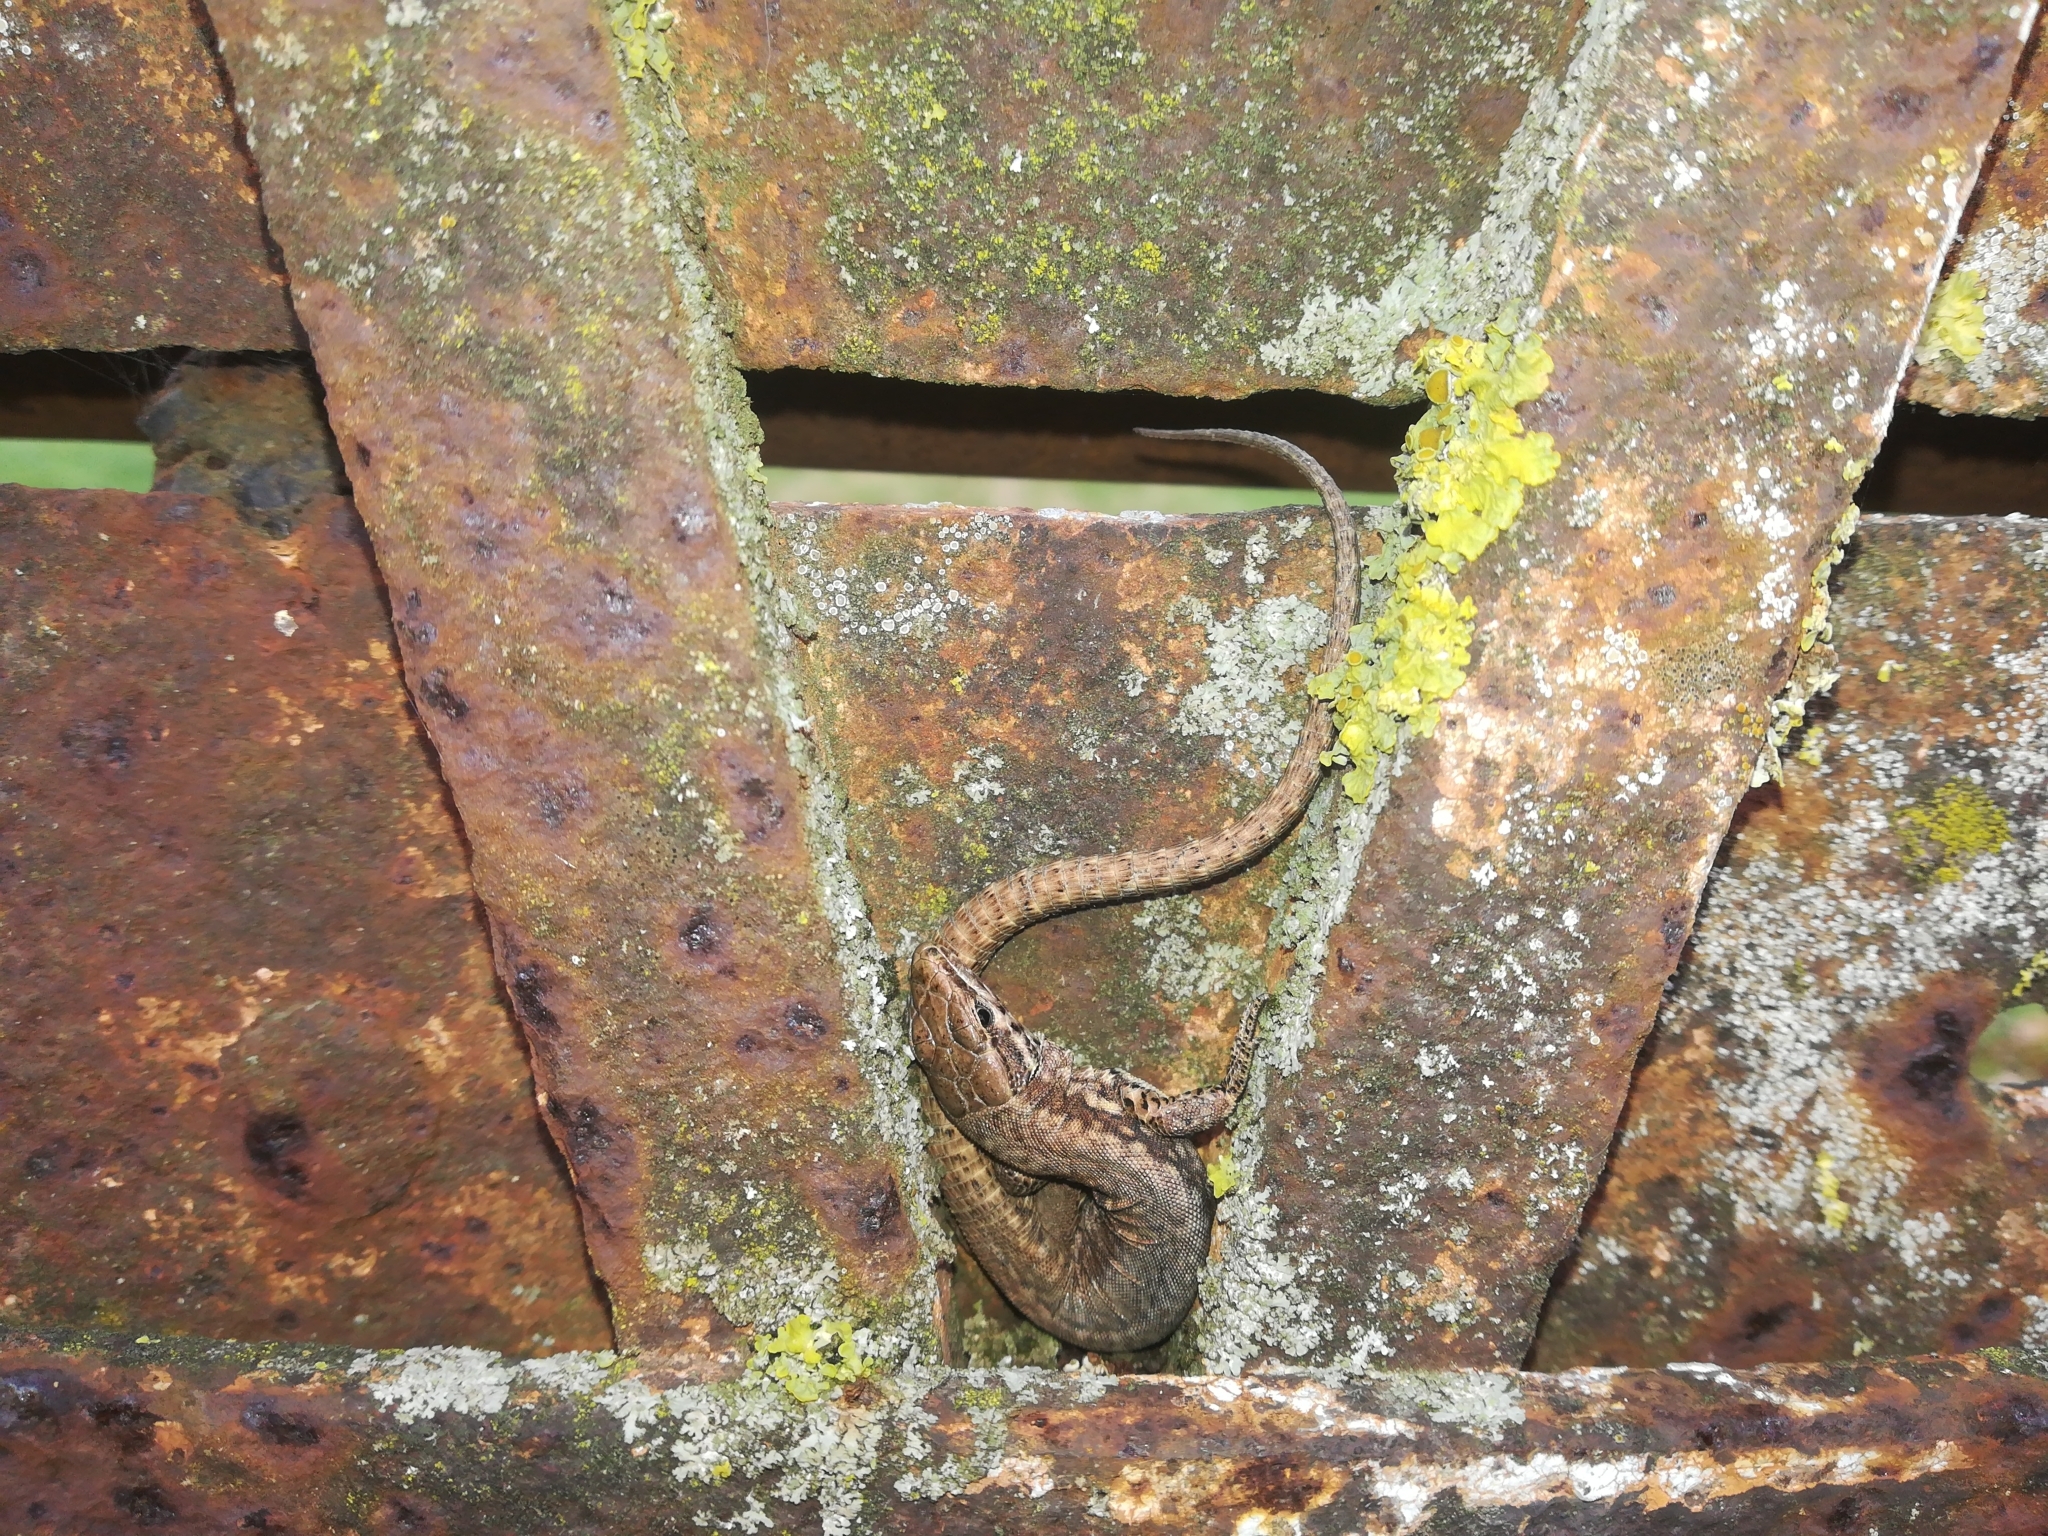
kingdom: Animalia
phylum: Chordata
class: Squamata
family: Lacertidae
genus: Podarcis
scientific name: Podarcis muralis
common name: Common wall lizard
